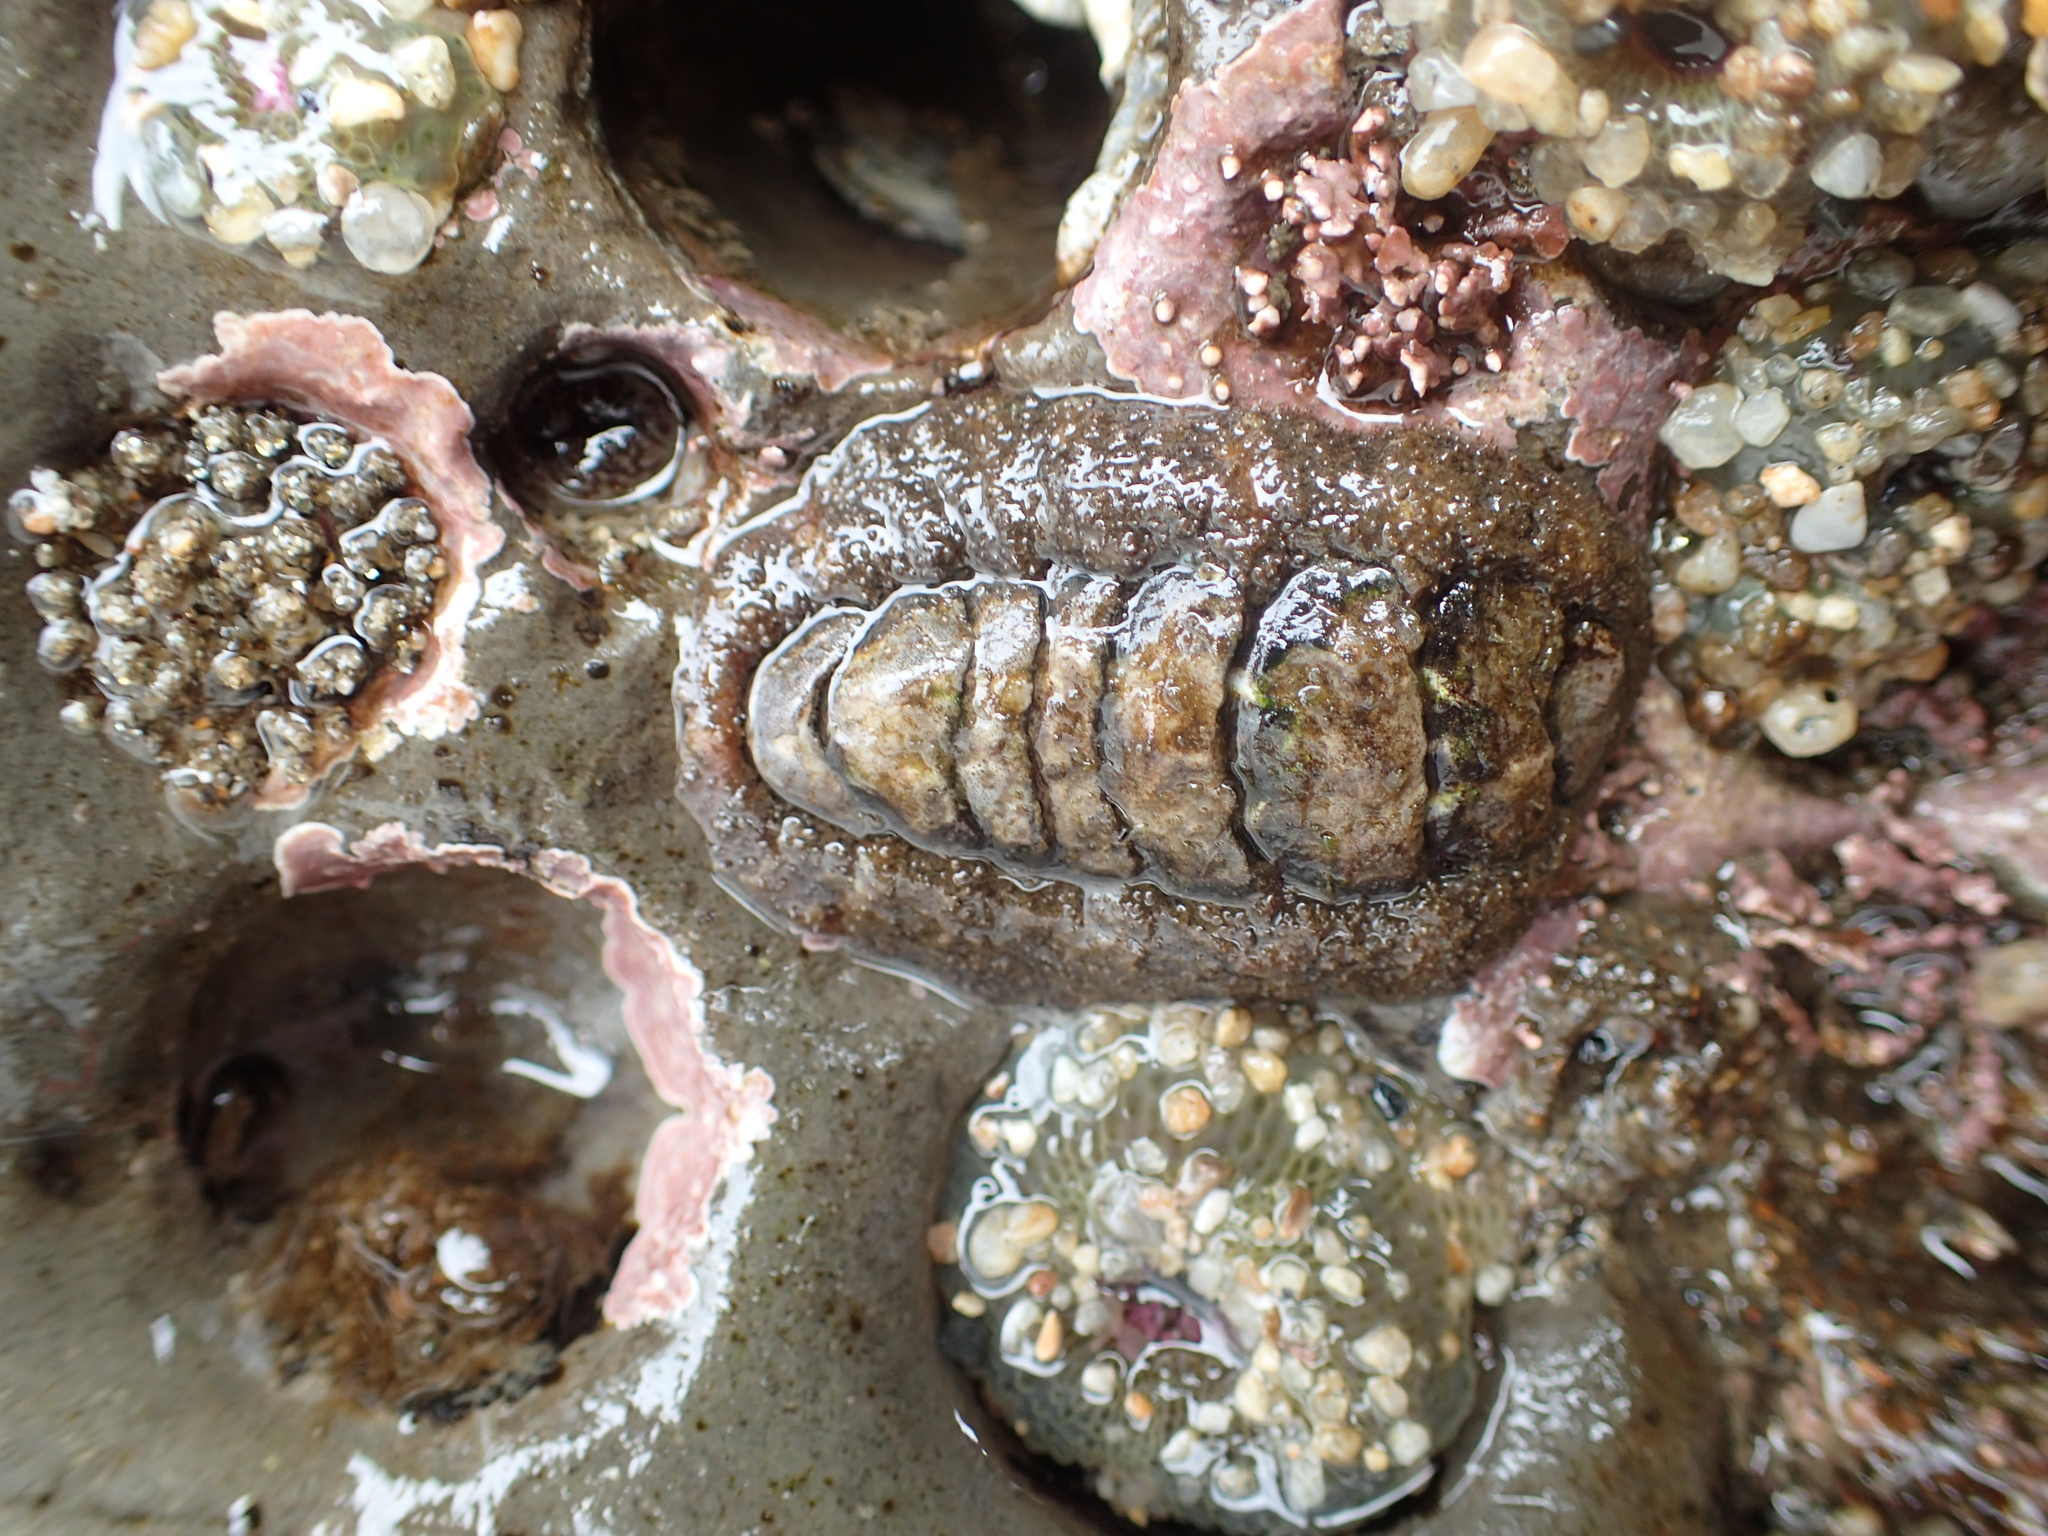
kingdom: Animalia
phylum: Mollusca
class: Polyplacophora
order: Chitonida
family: Tonicellidae
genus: Nuttallina
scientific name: Nuttallina californica
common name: California nuttall chiton
